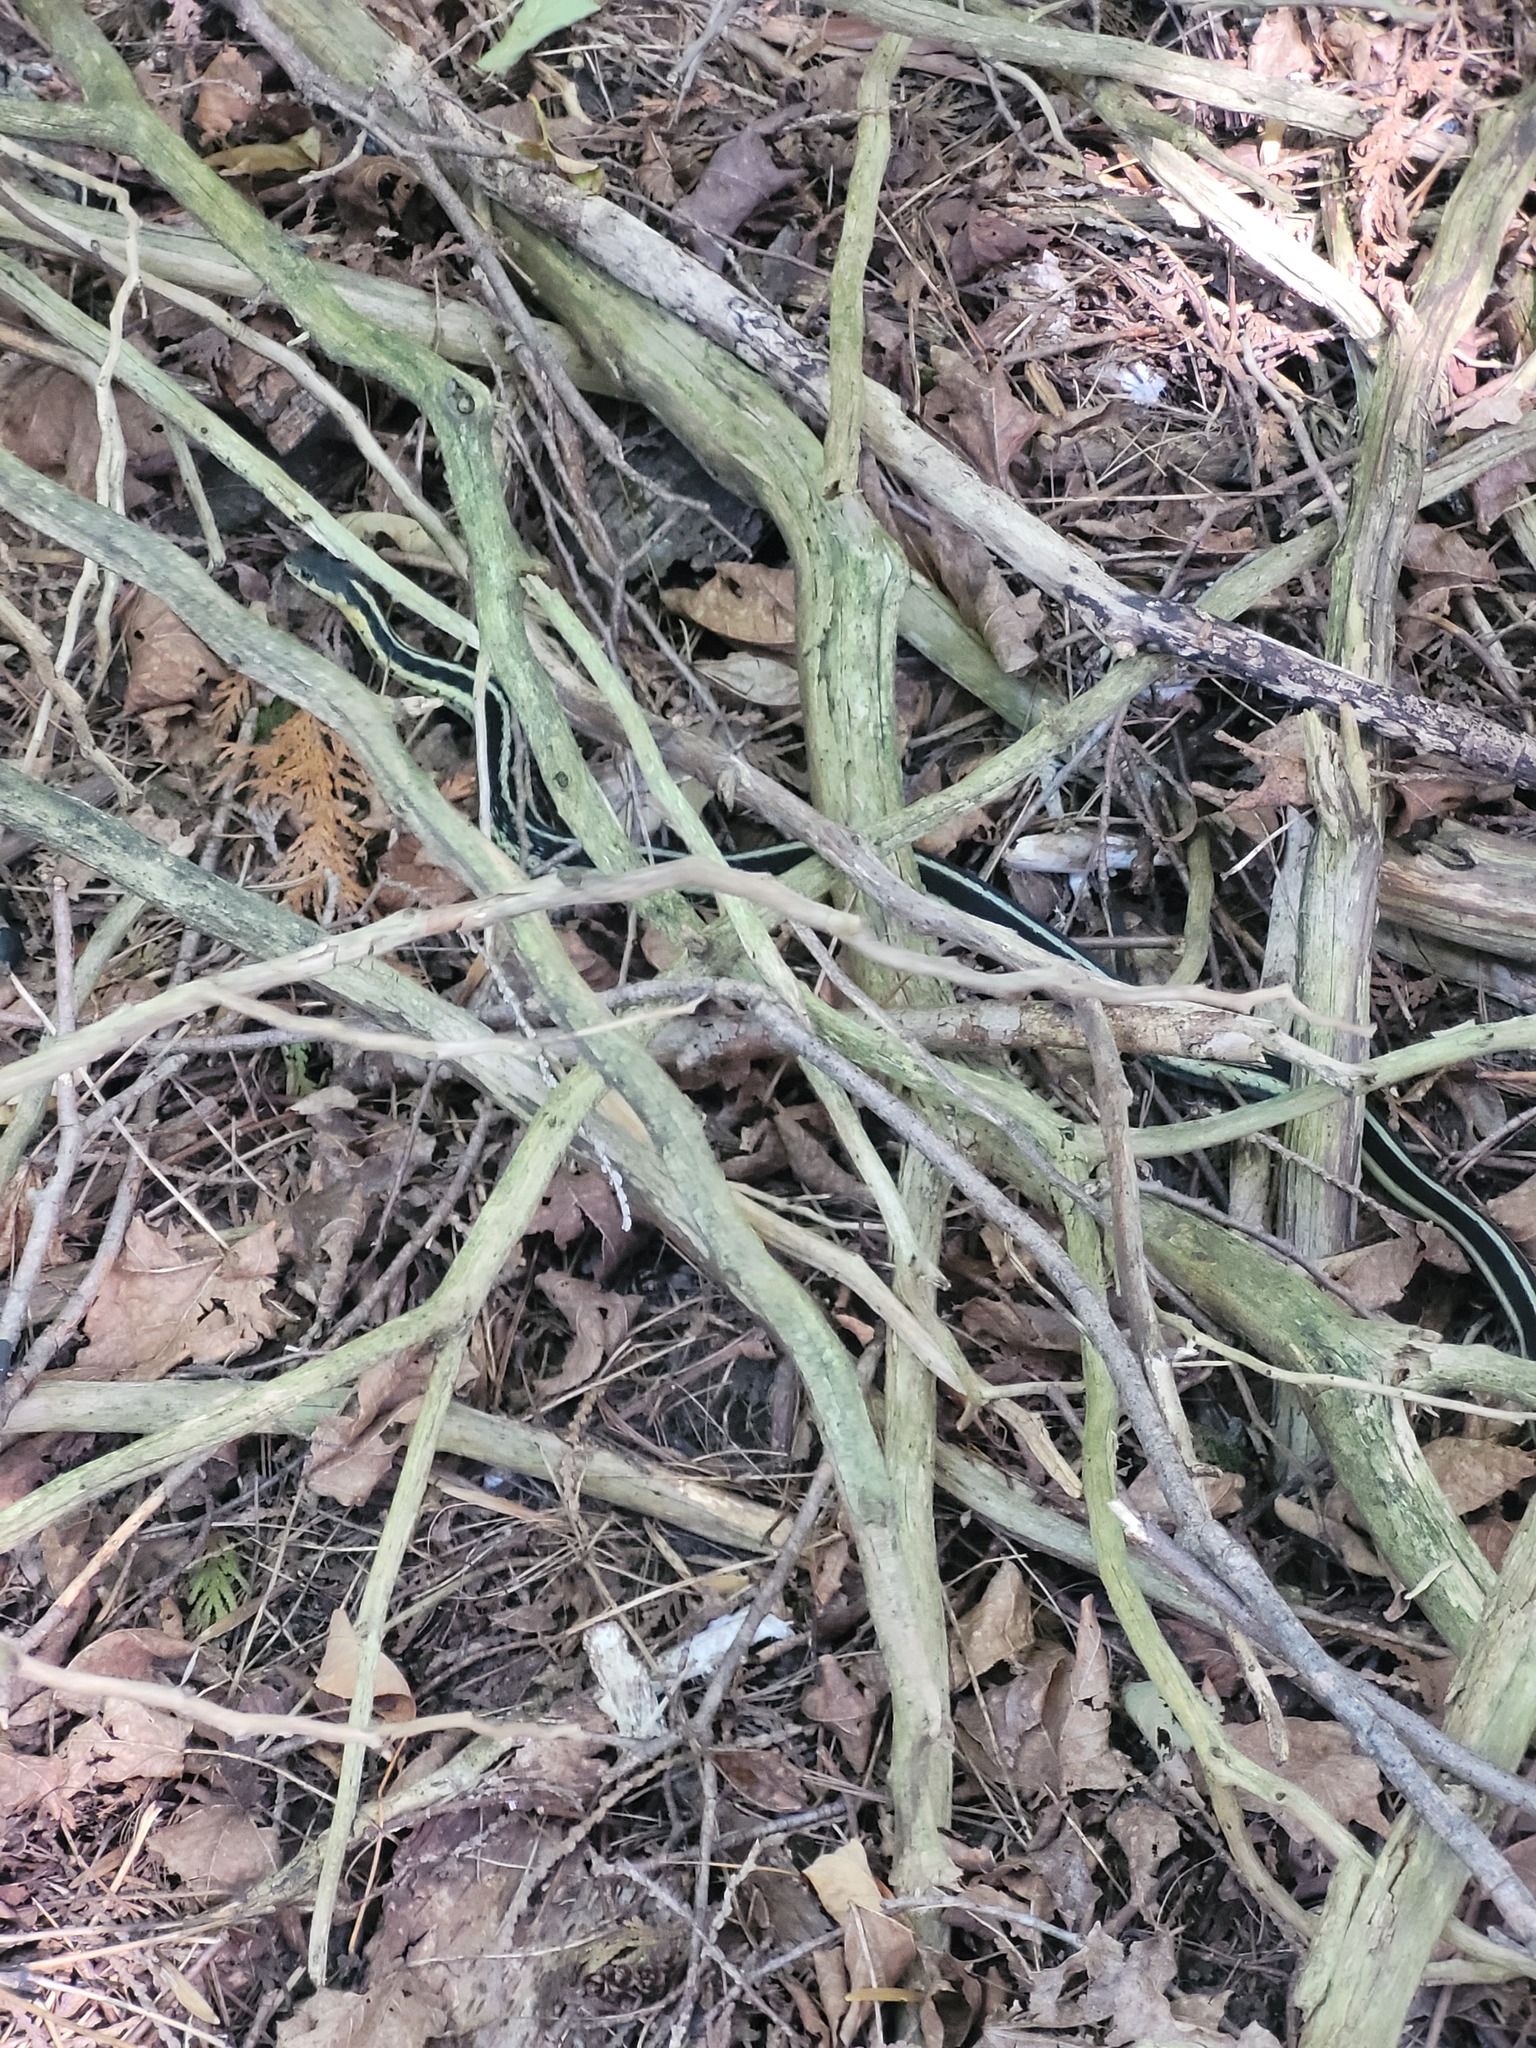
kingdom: Animalia
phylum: Chordata
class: Squamata
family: Colubridae
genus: Thamnophis
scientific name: Thamnophis sirtalis
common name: Common garter snake
